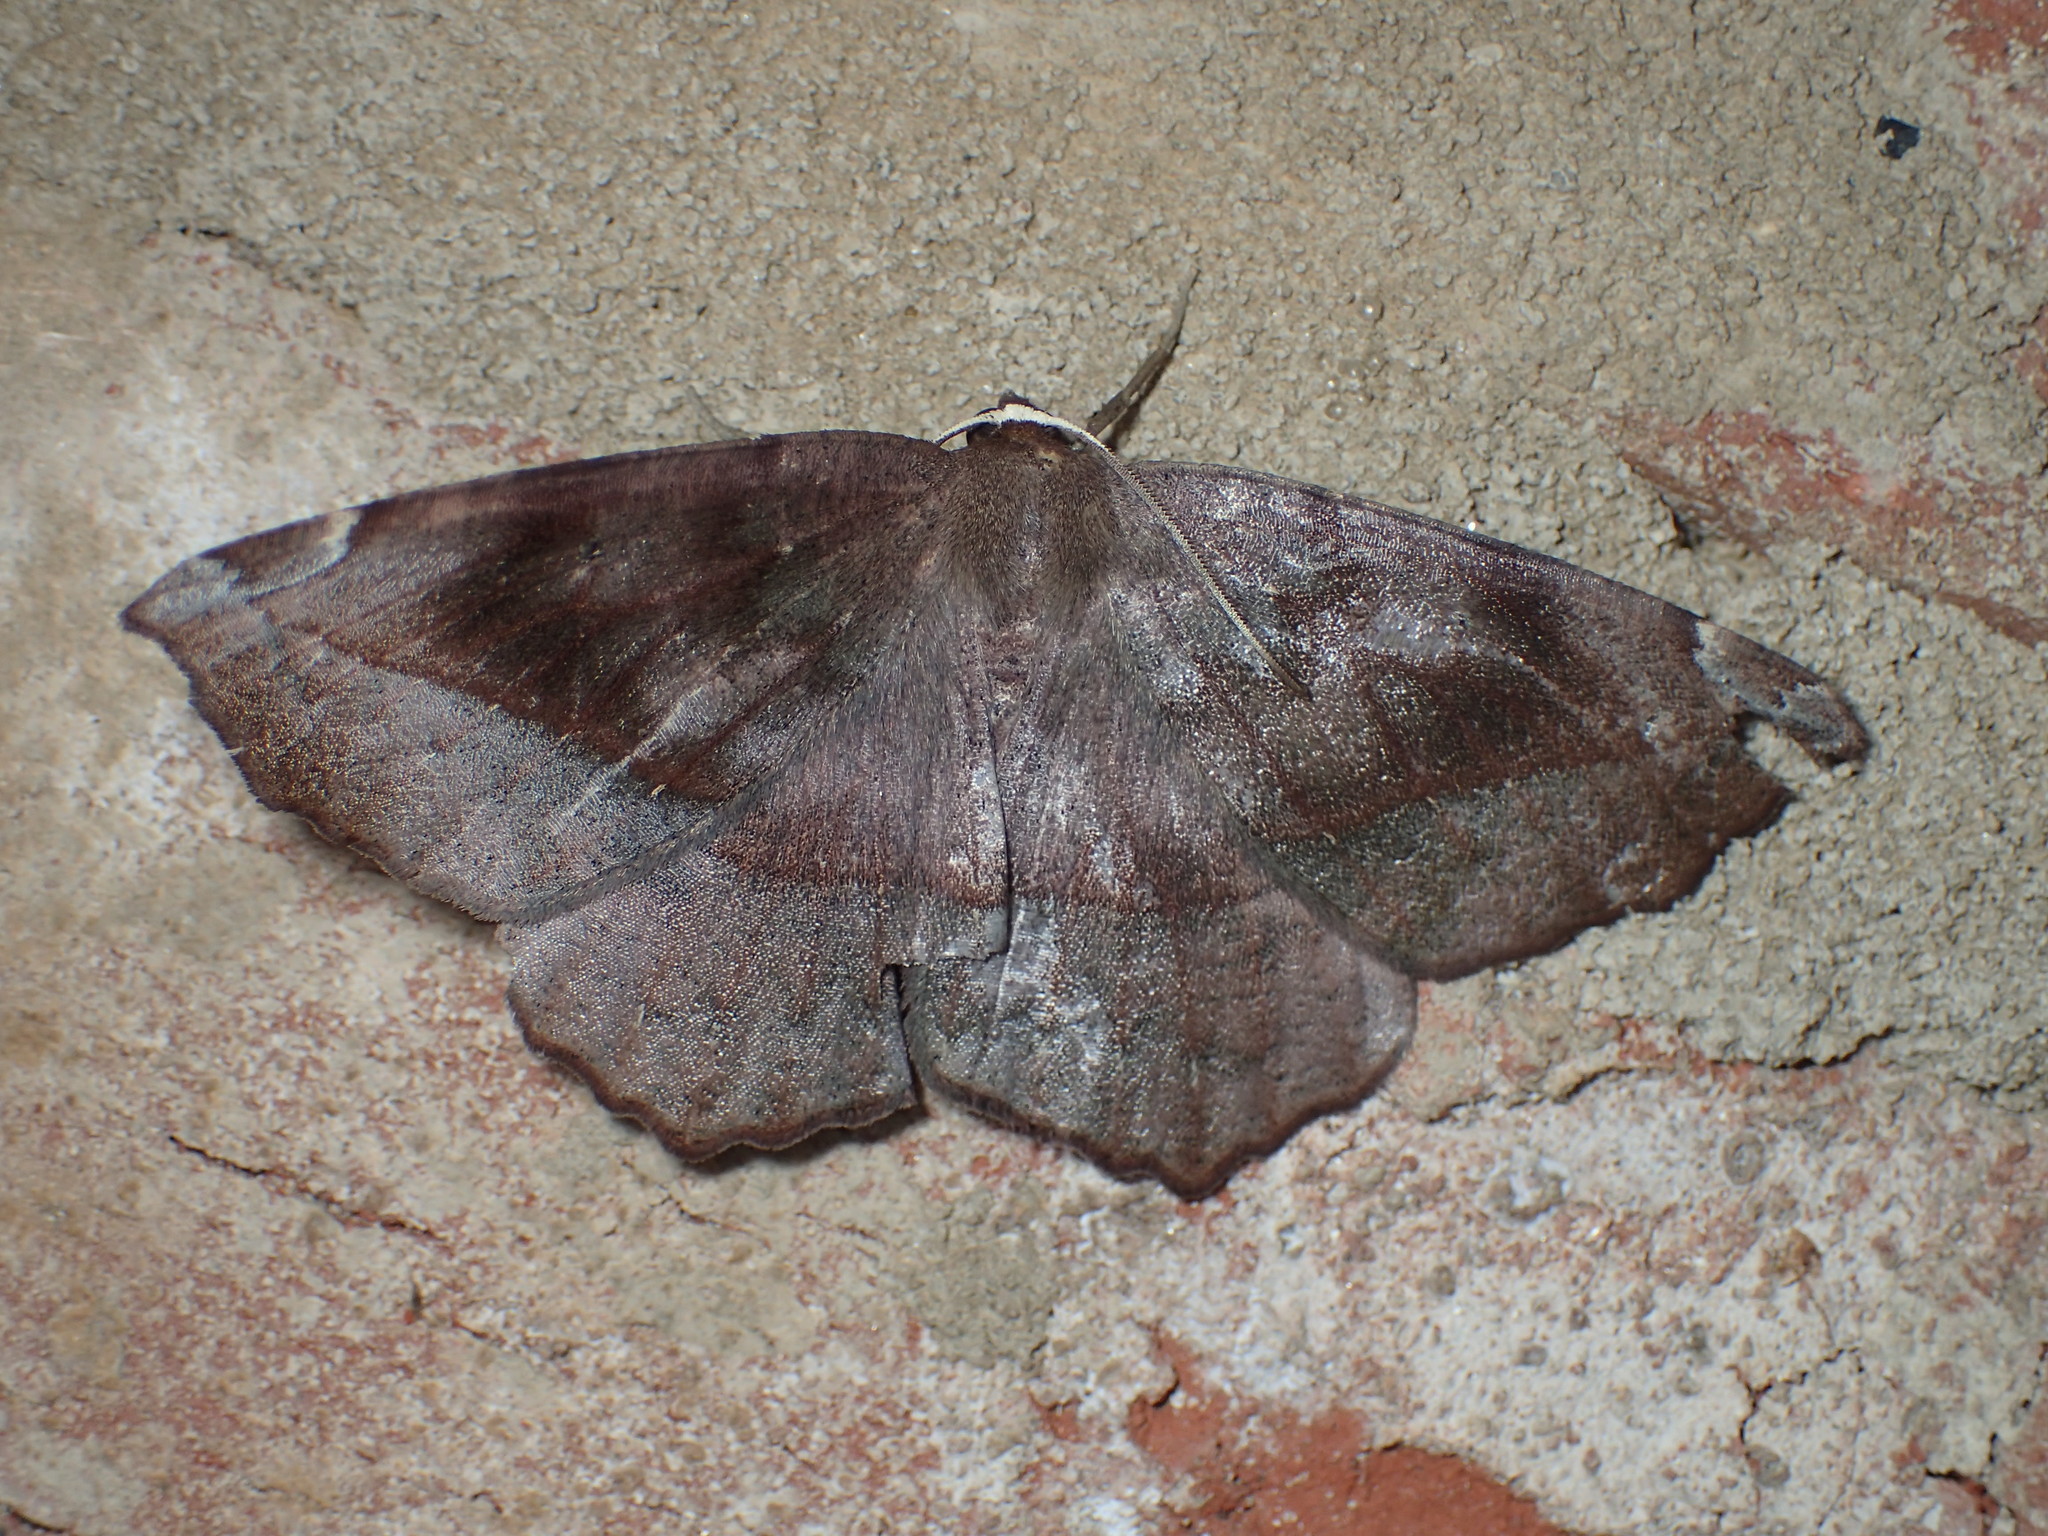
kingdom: Animalia
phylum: Arthropoda
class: Insecta
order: Lepidoptera
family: Geometridae
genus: Eutrapela
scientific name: Eutrapela clemataria
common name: Curved-toothed geometer
